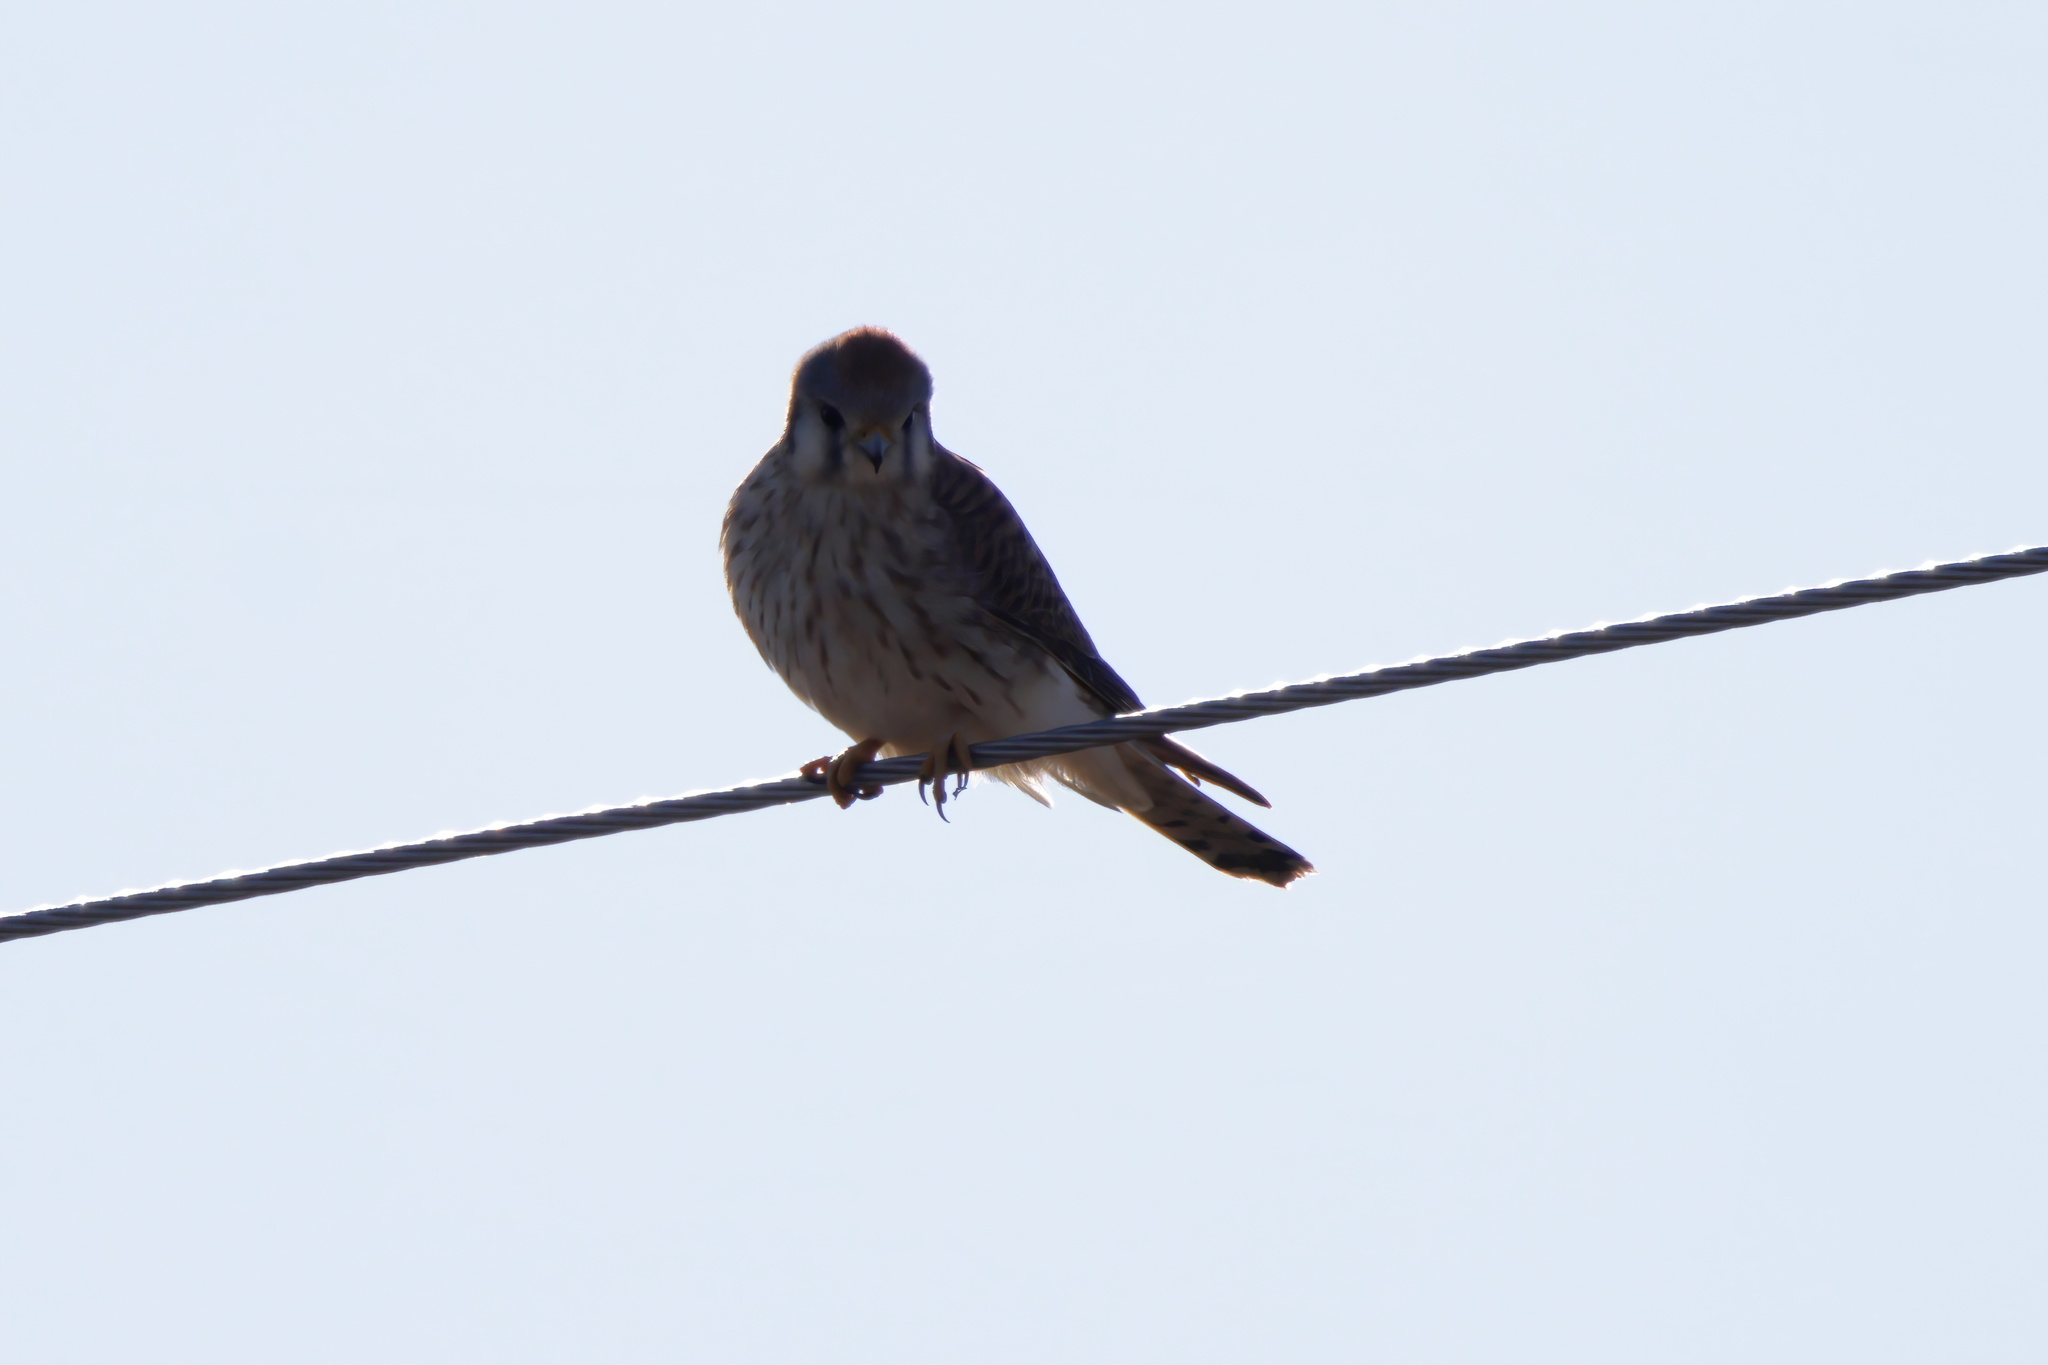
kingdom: Animalia
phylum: Chordata
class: Aves
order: Falconiformes
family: Falconidae
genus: Falco
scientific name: Falco sparverius
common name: American kestrel
